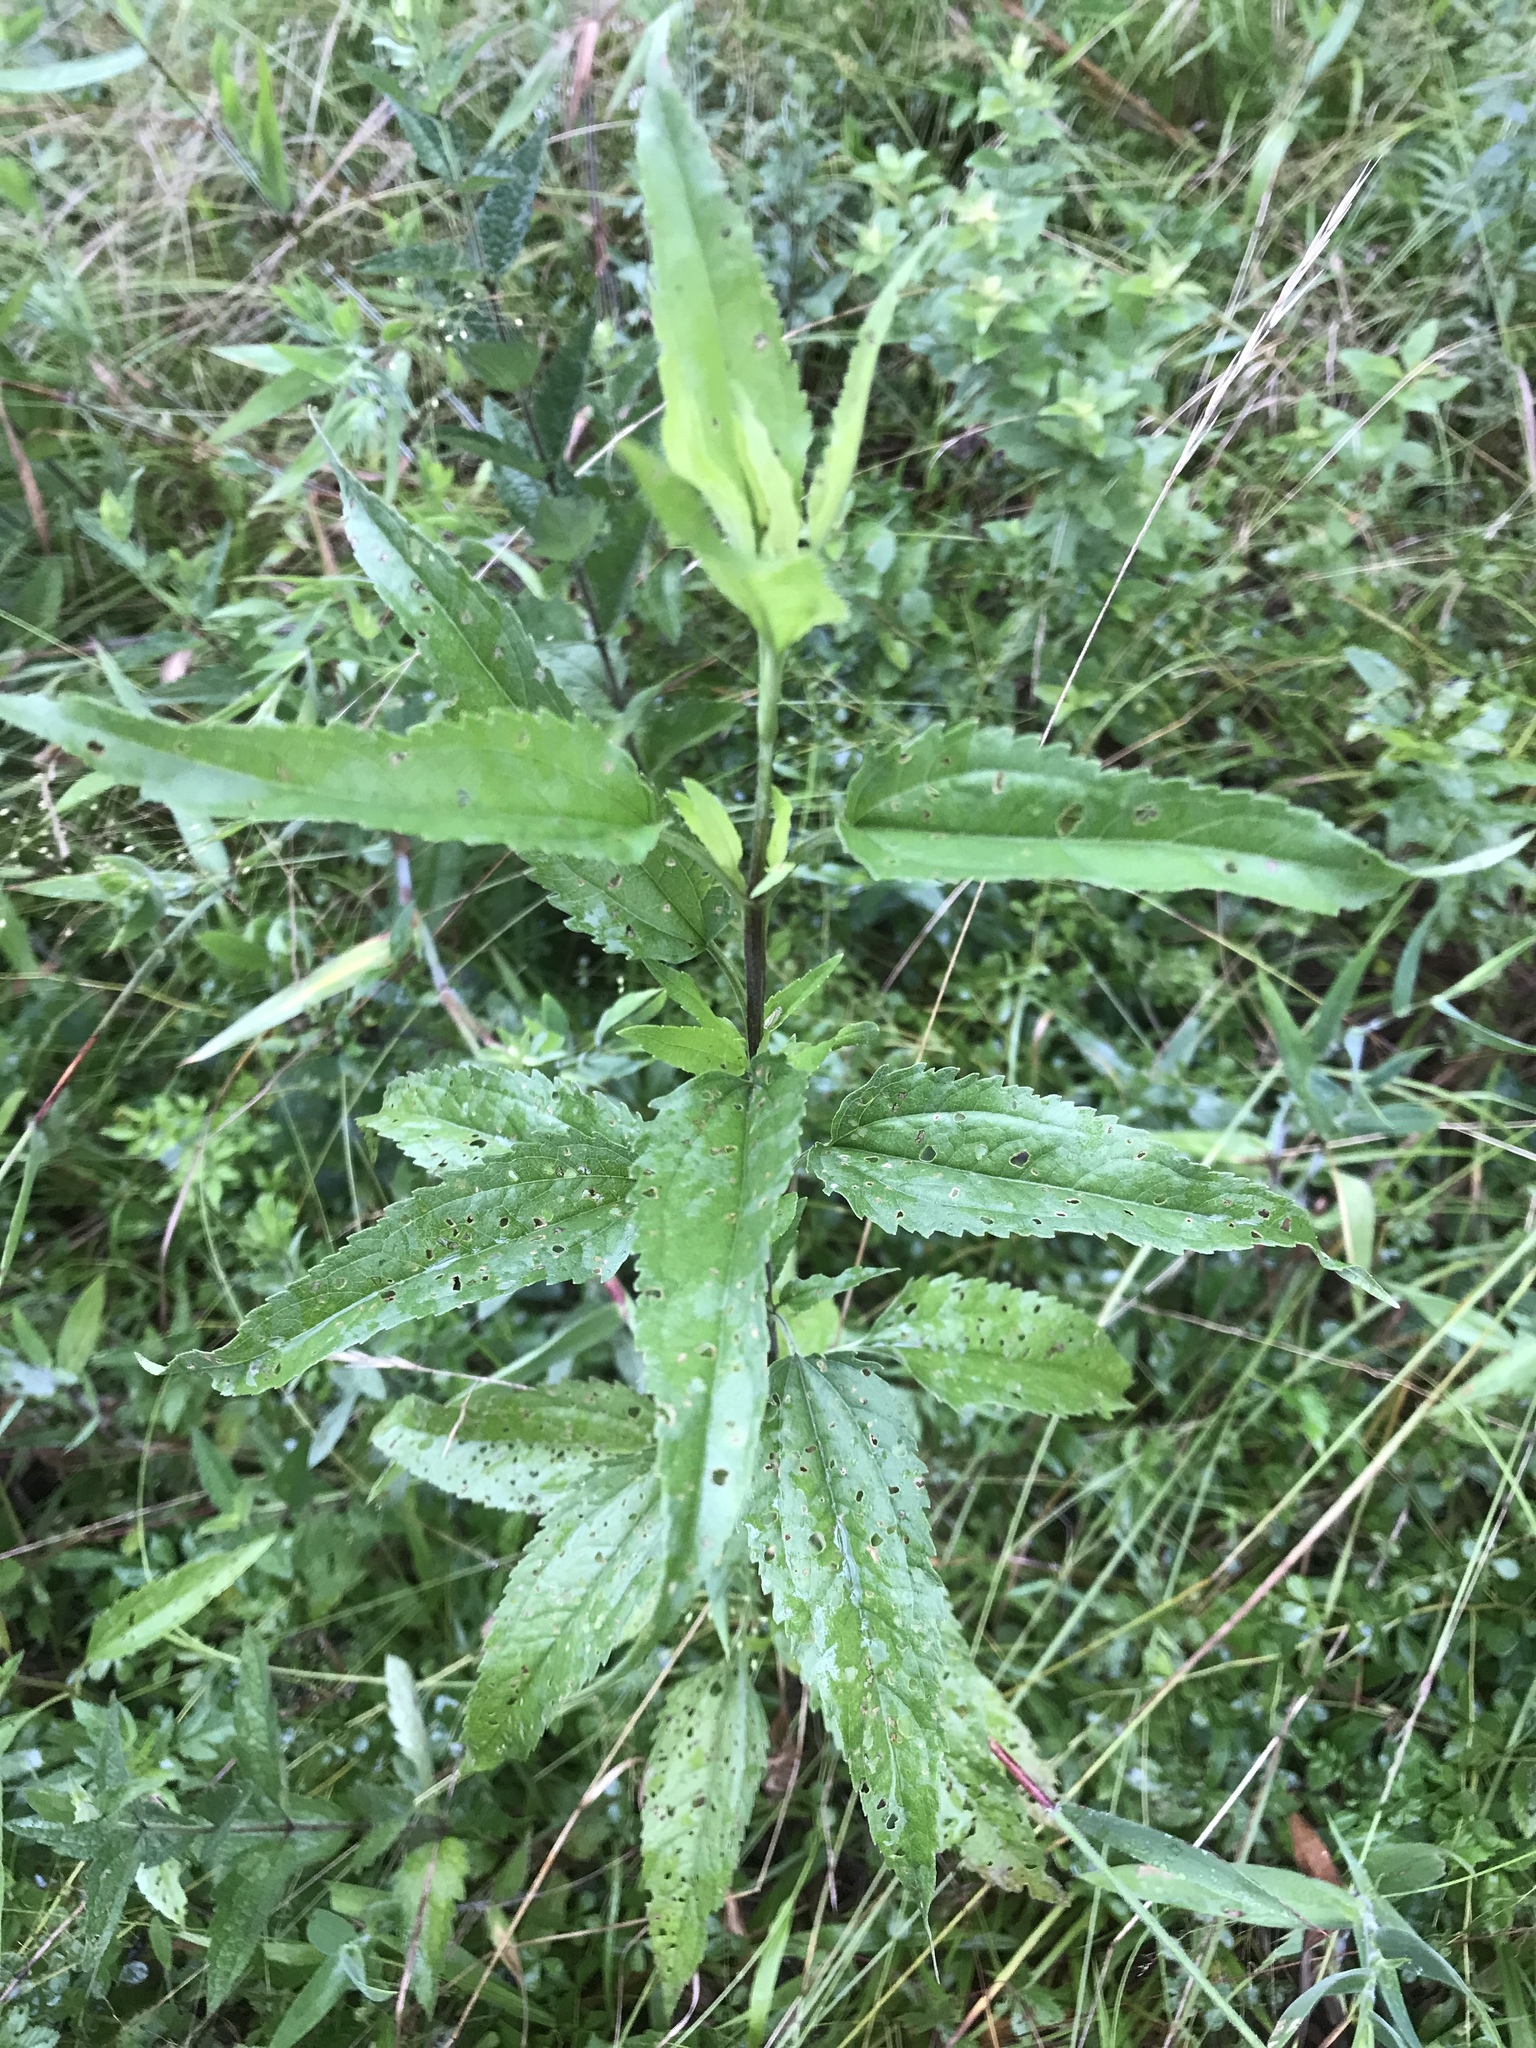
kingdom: Plantae
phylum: Tracheophyta
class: Magnoliopsida
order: Asterales
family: Asteraceae
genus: Eupatorium
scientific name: Eupatorium serotinum
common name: Late boneset
